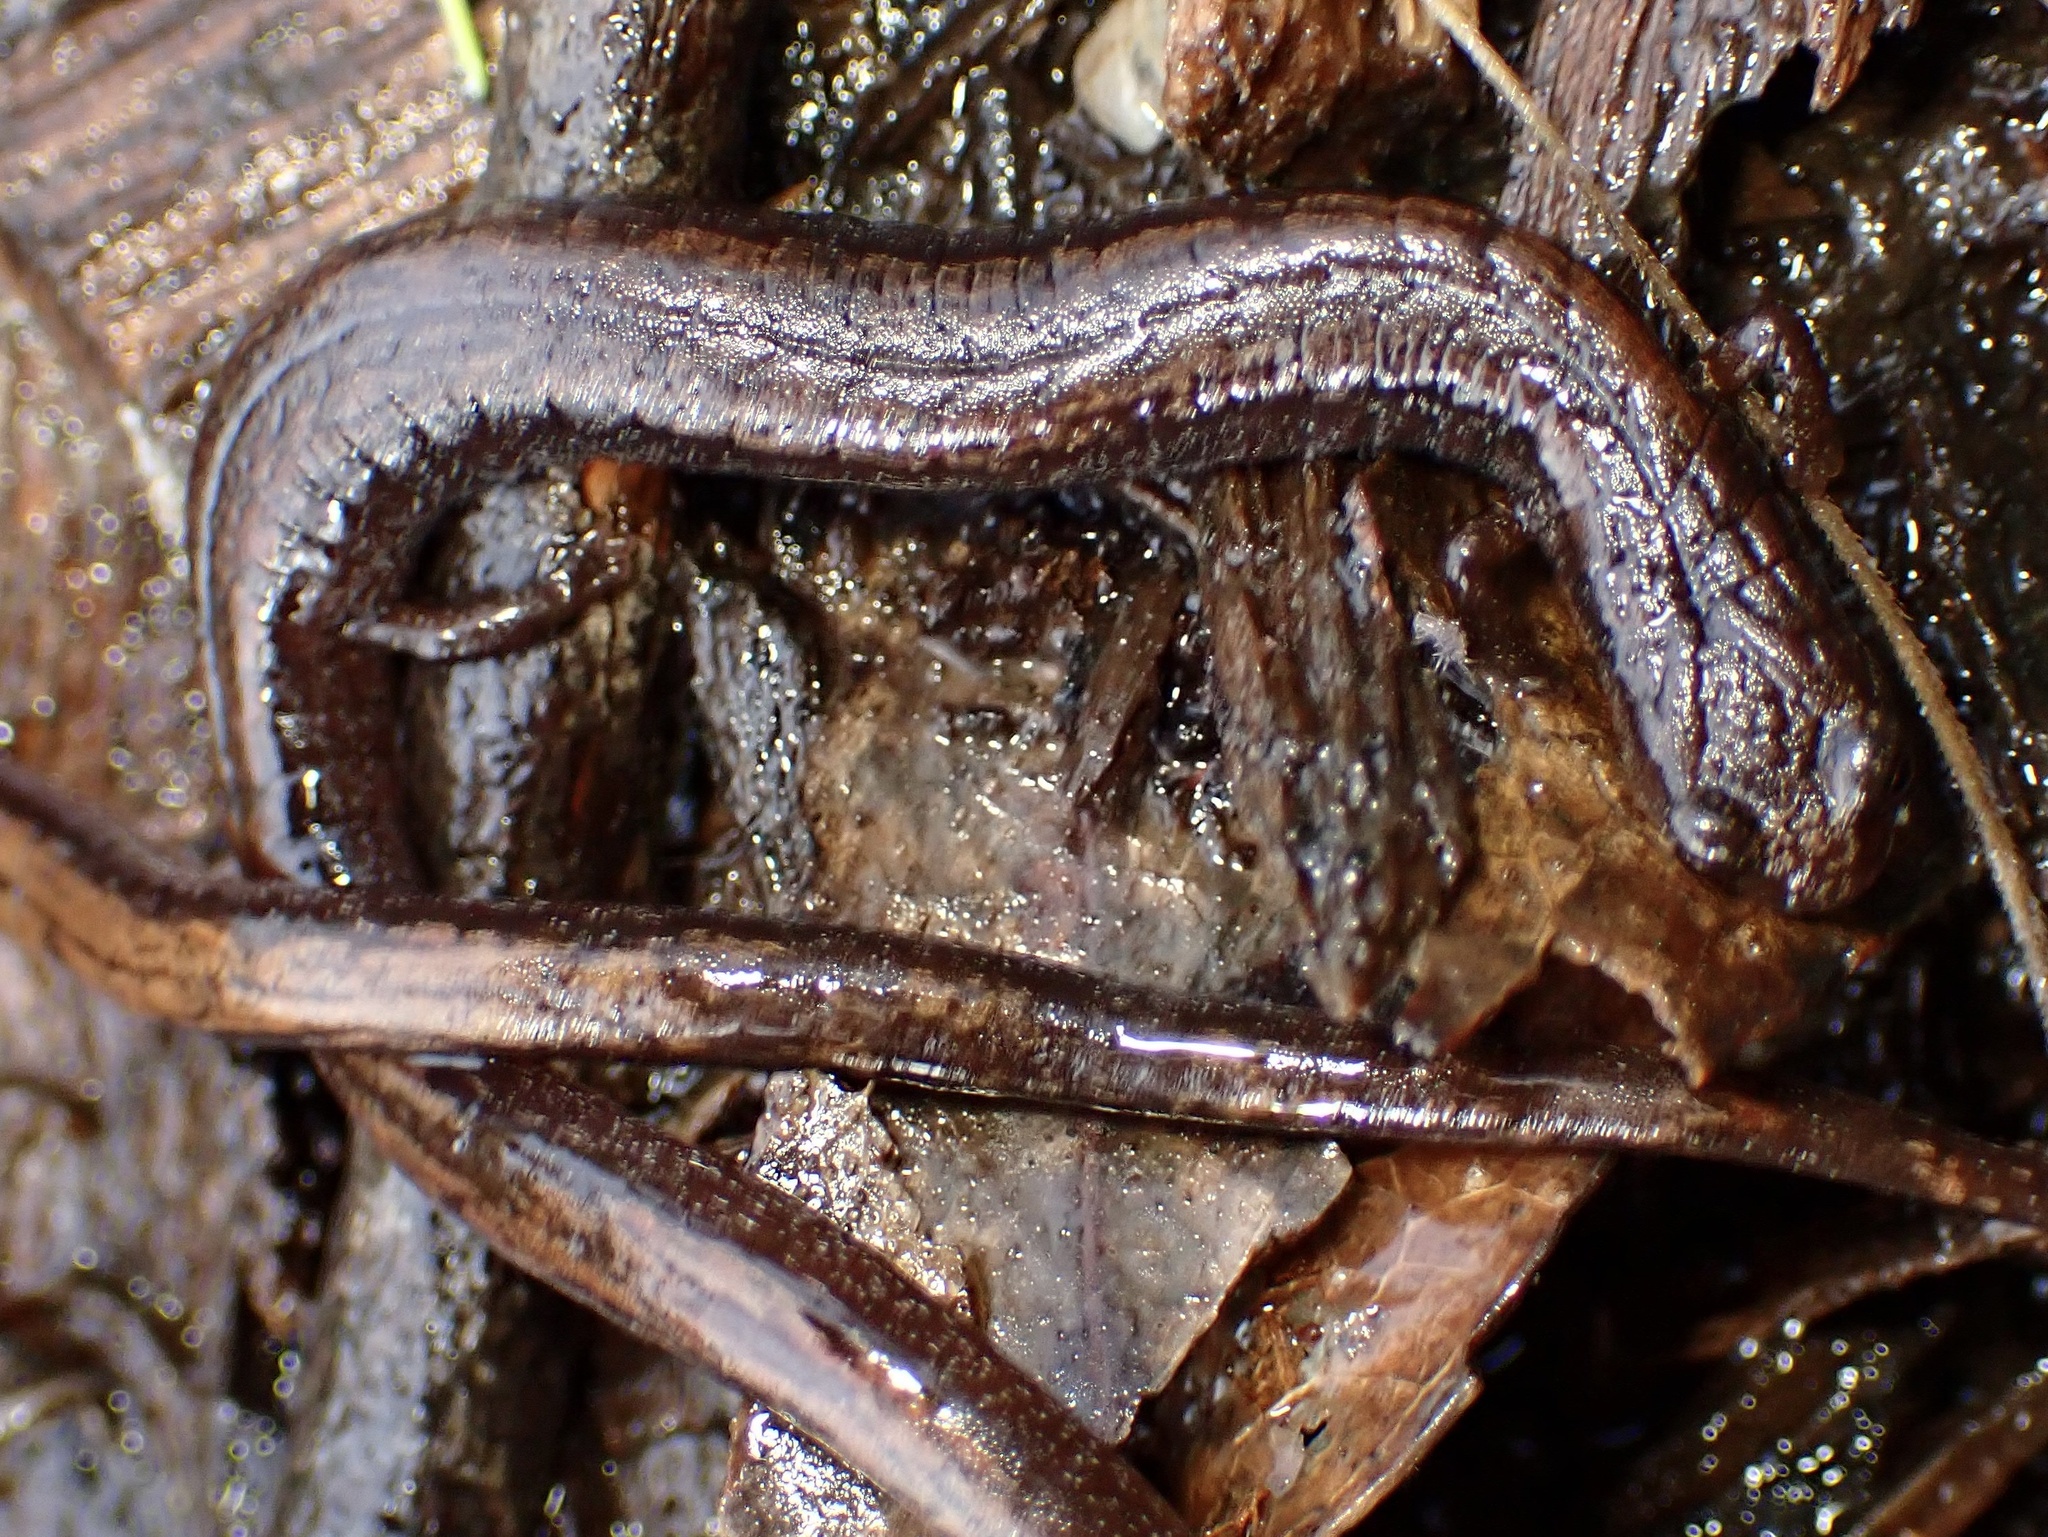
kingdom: Animalia
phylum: Chordata
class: Amphibia
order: Caudata
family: Plethodontidae
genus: Batrachoseps
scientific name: Batrachoseps attenuatus
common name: California slender salamander
